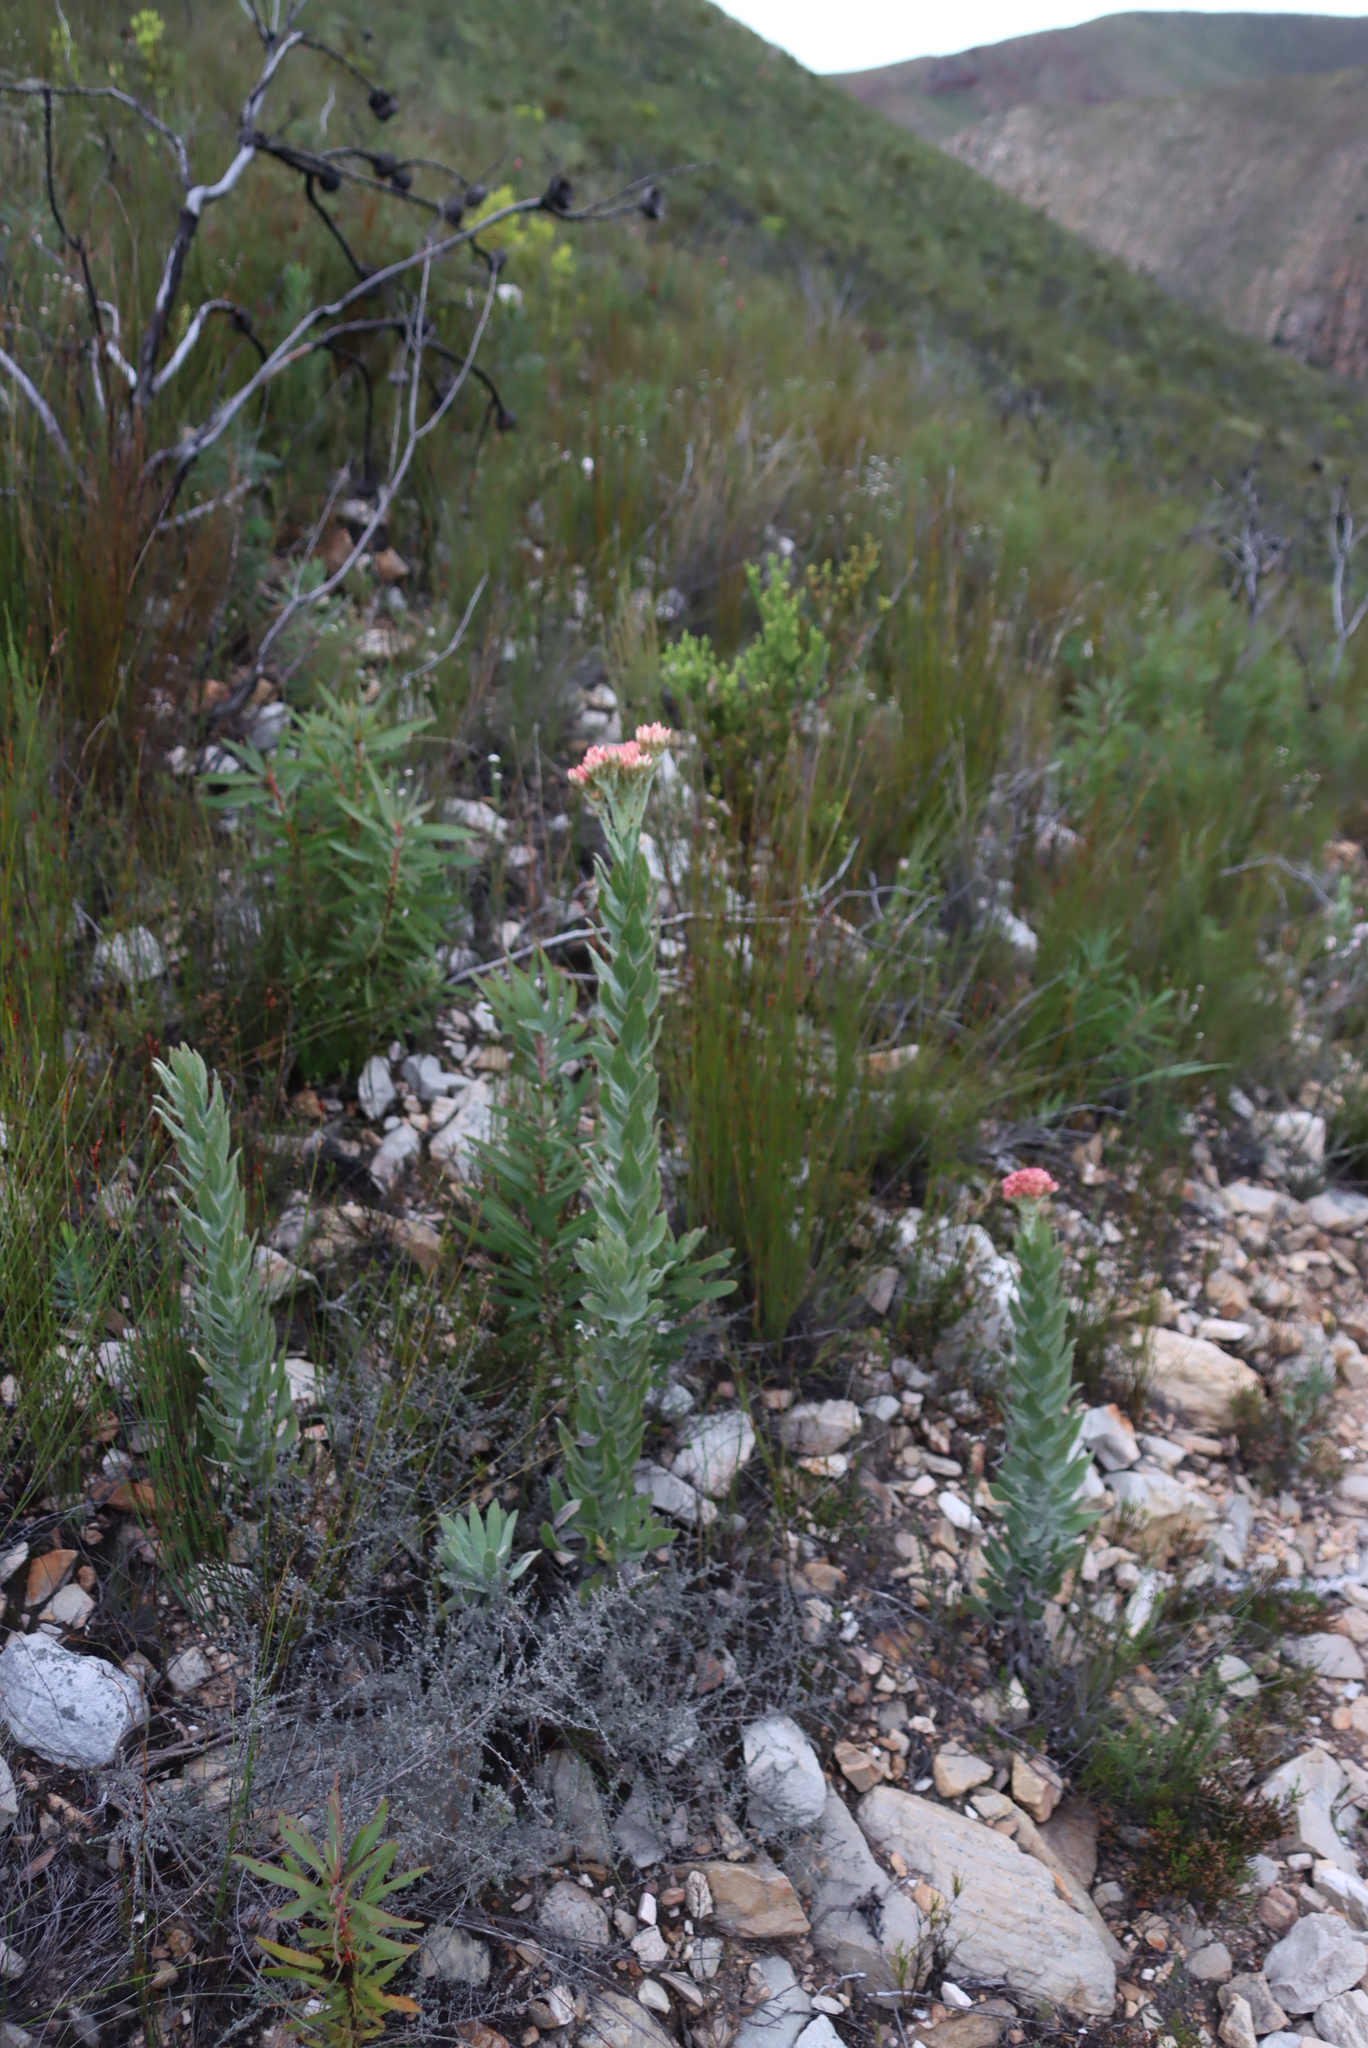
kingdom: Plantae
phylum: Tracheophyta
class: Magnoliopsida
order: Asterales
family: Asteraceae
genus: Syncarpha
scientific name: Syncarpha milleflora
